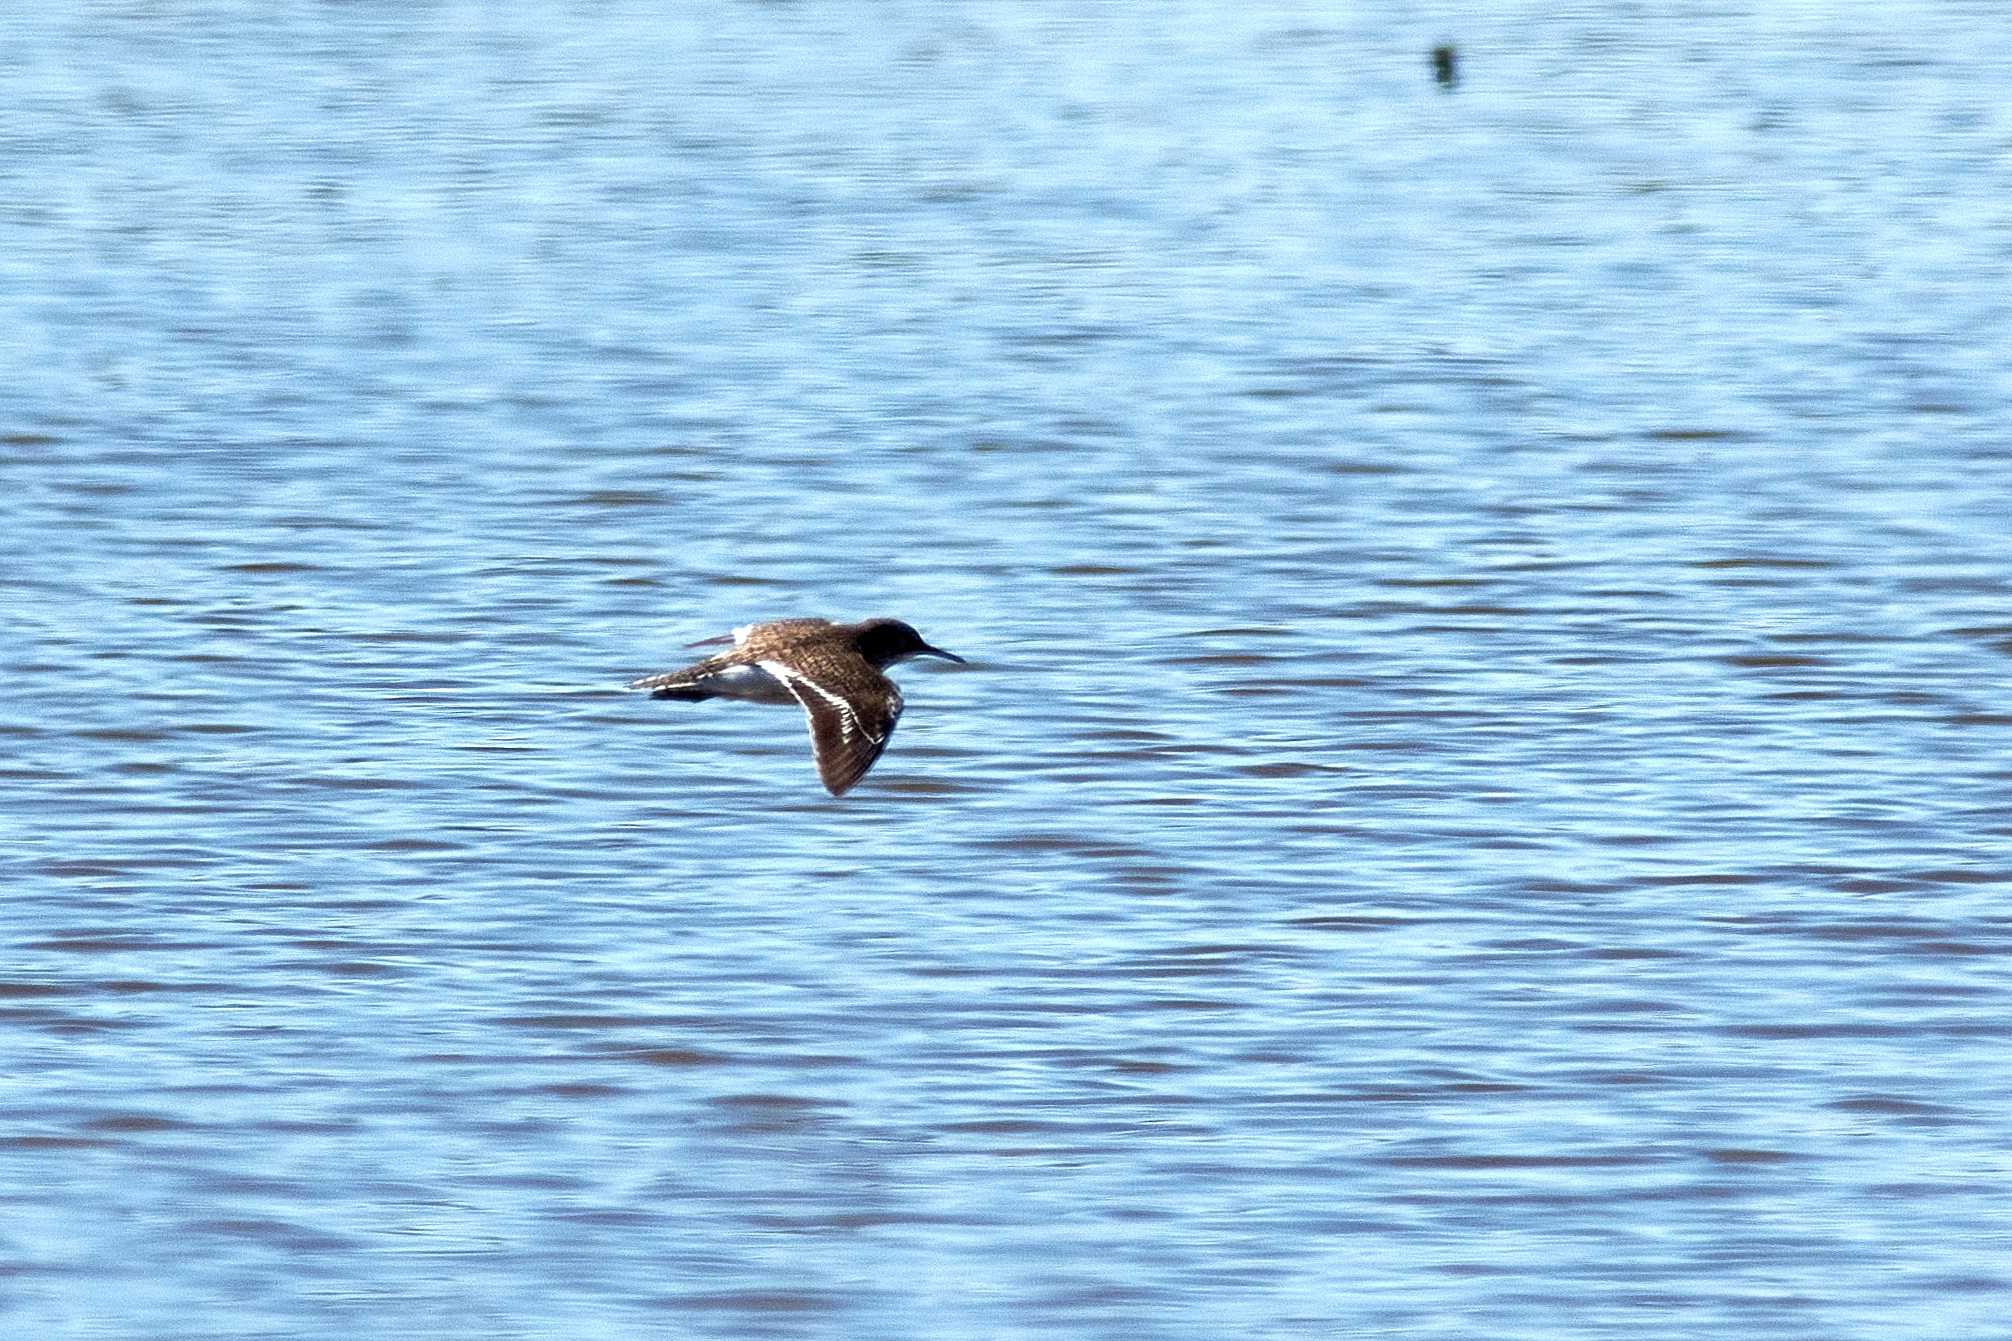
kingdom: Animalia
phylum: Chordata
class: Aves
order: Charadriiformes
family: Scolopacidae
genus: Actitis
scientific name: Actitis hypoleucos
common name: Common sandpiper
